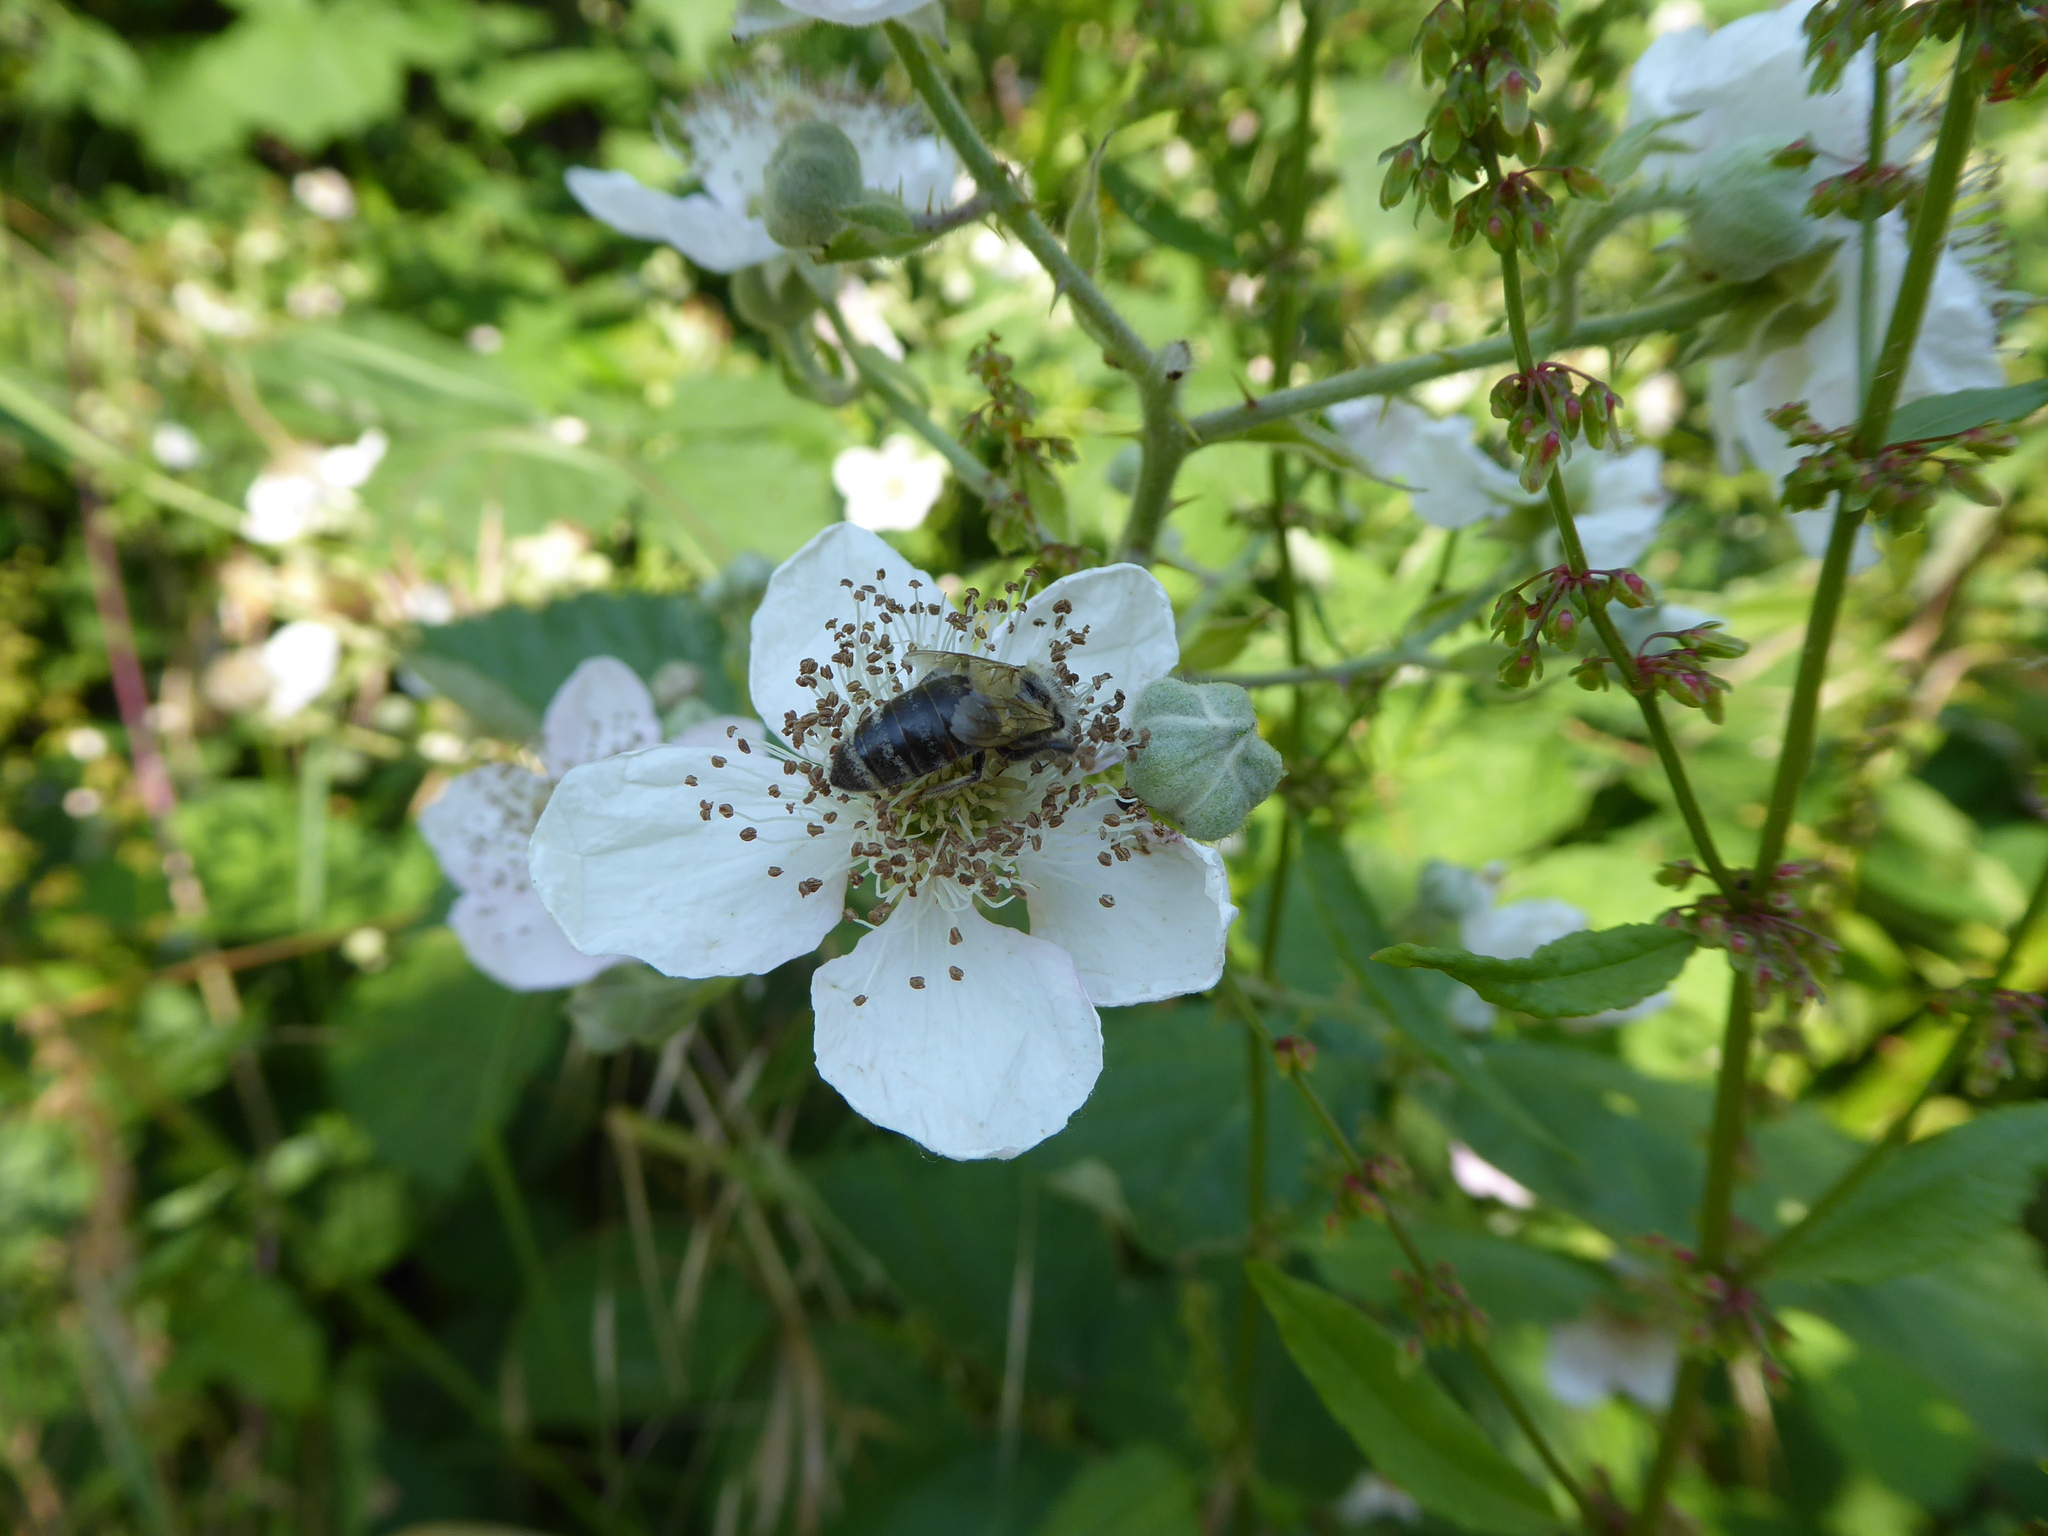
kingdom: Animalia
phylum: Arthropoda
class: Insecta
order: Hymenoptera
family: Apidae
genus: Apis
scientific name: Apis mellifera
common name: Honey bee
